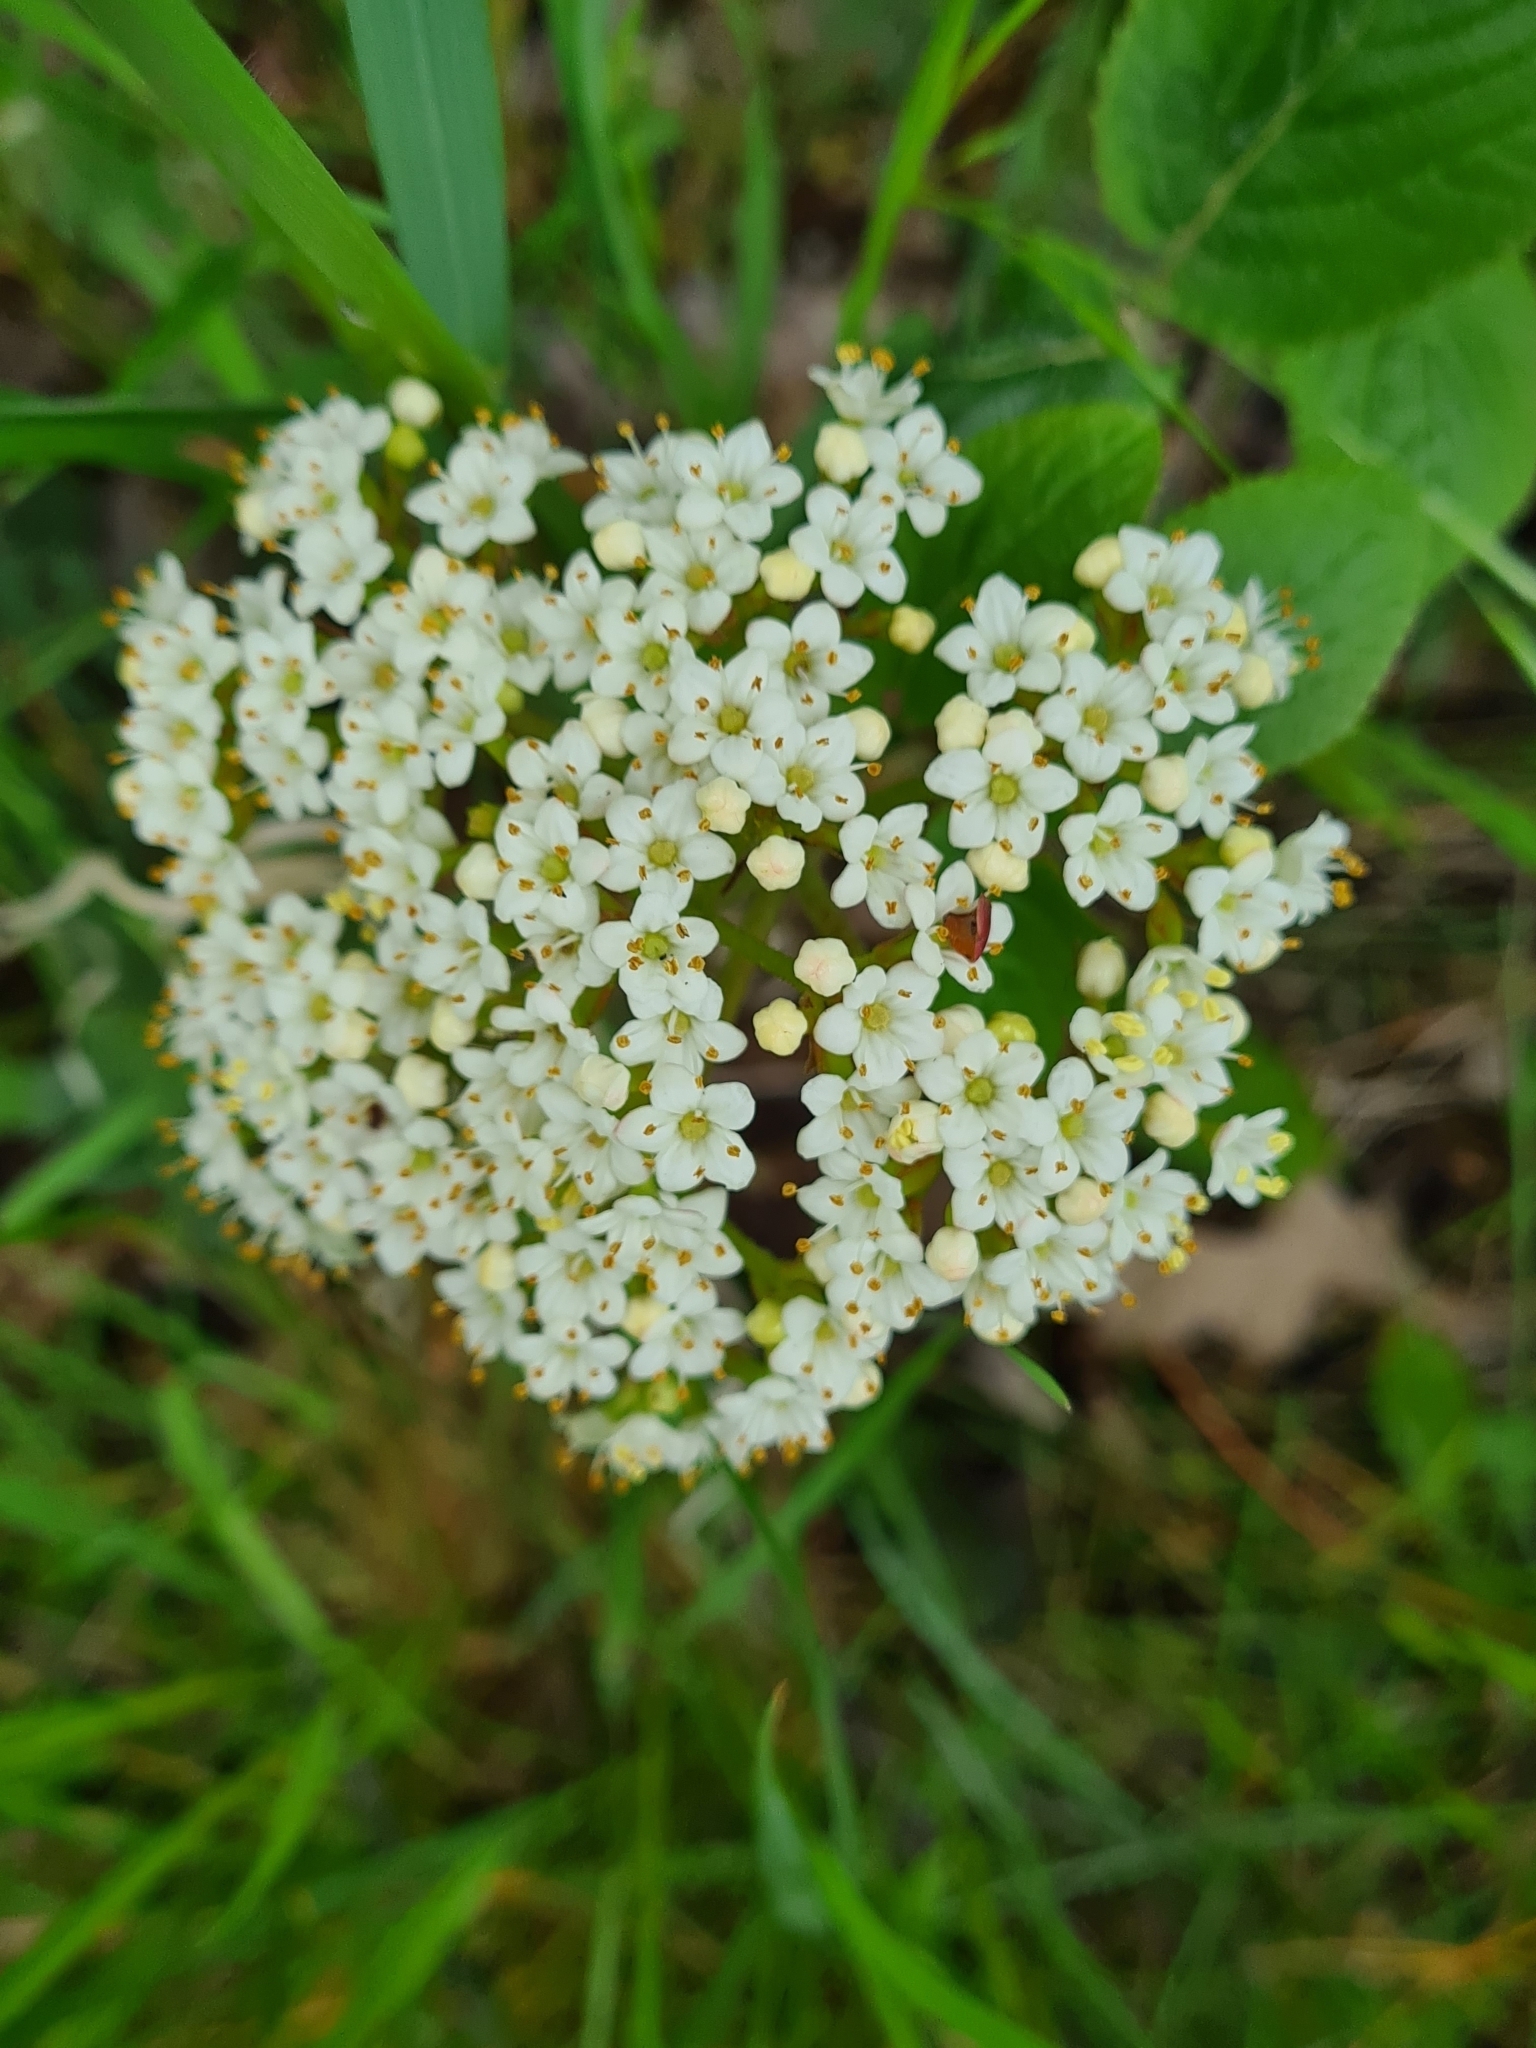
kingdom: Plantae
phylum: Tracheophyta
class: Magnoliopsida
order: Dipsacales
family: Viburnaceae
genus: Viburnum
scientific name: Viburnum lantana
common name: Wayfaring tree
